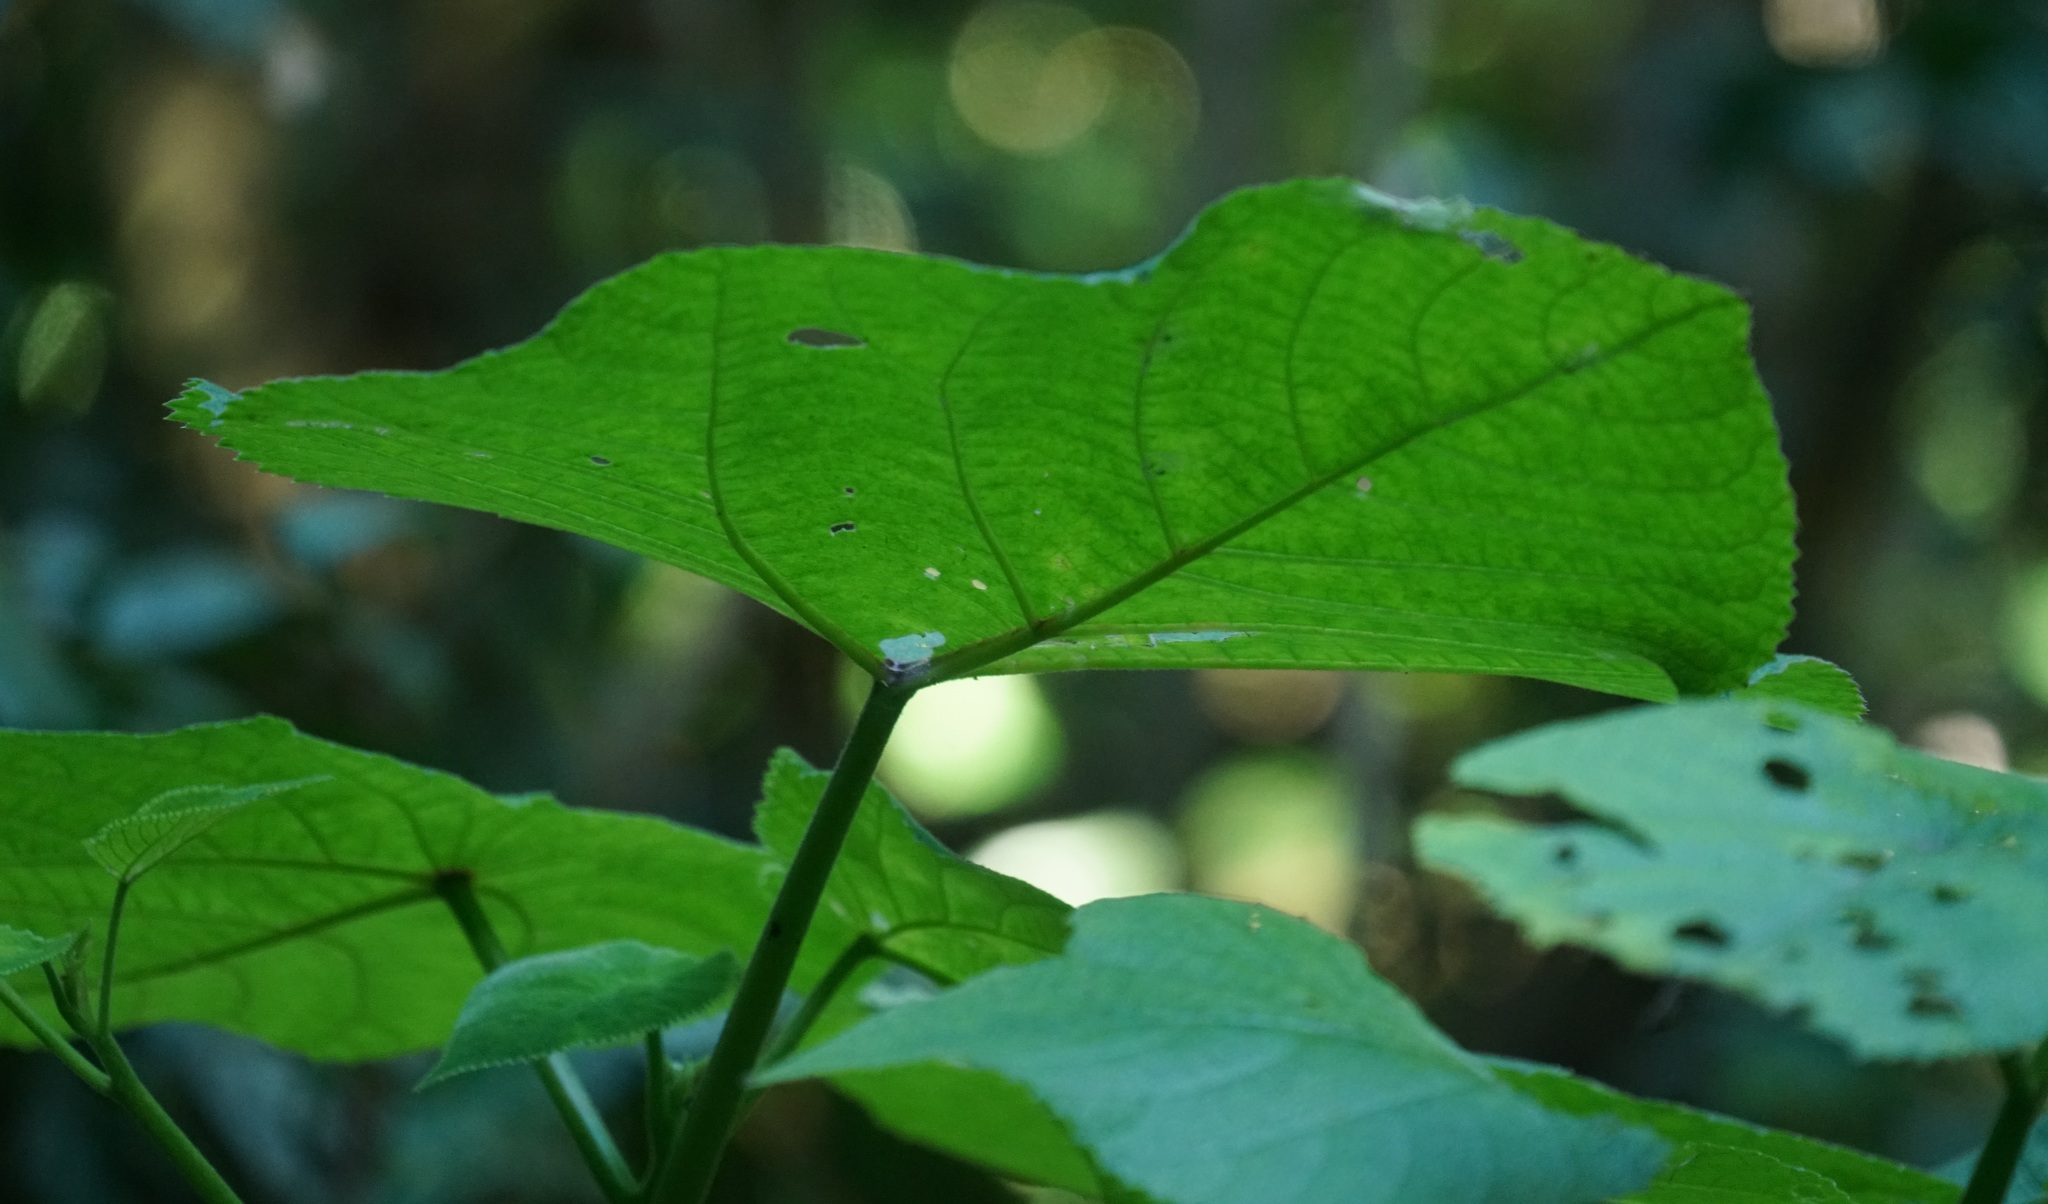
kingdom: Plantae
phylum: Tracheophyta
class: Magnoliopsida
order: Rosales
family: Urticaceae
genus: Dendrocnide
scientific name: Dendrocnide moroides
